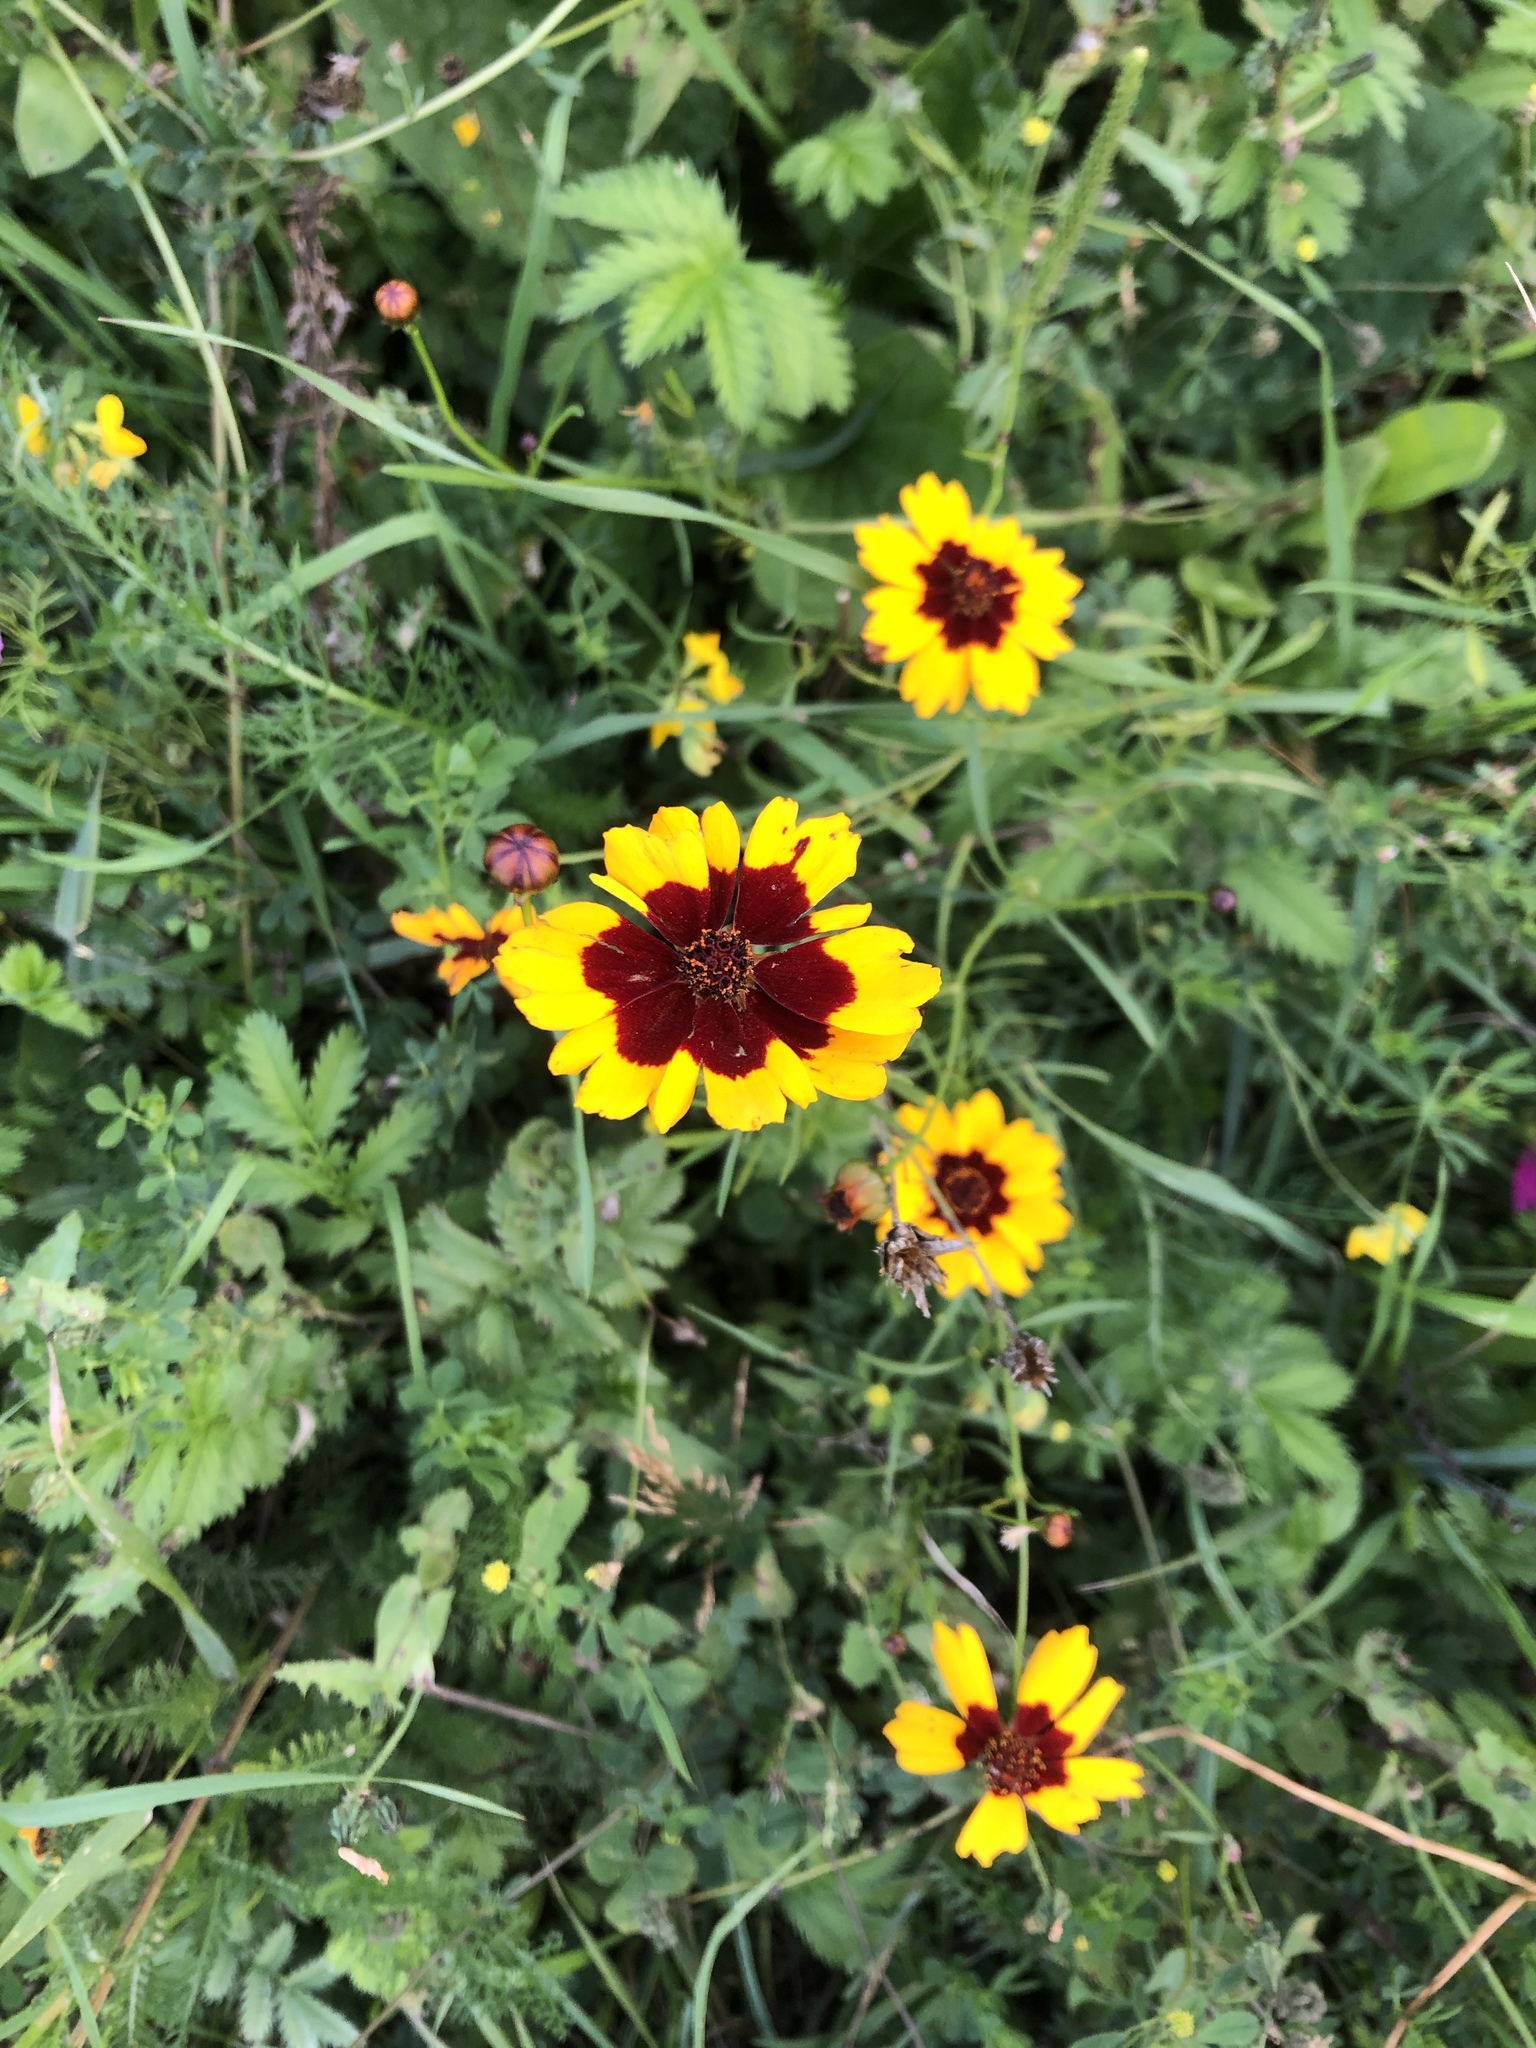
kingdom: Plantae
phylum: Tracheophyta
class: Magnoliopsida
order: Asterales
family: Asteraceae
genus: Coreopsis
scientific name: Coreopsis tinctoria
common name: Garden tickseed
